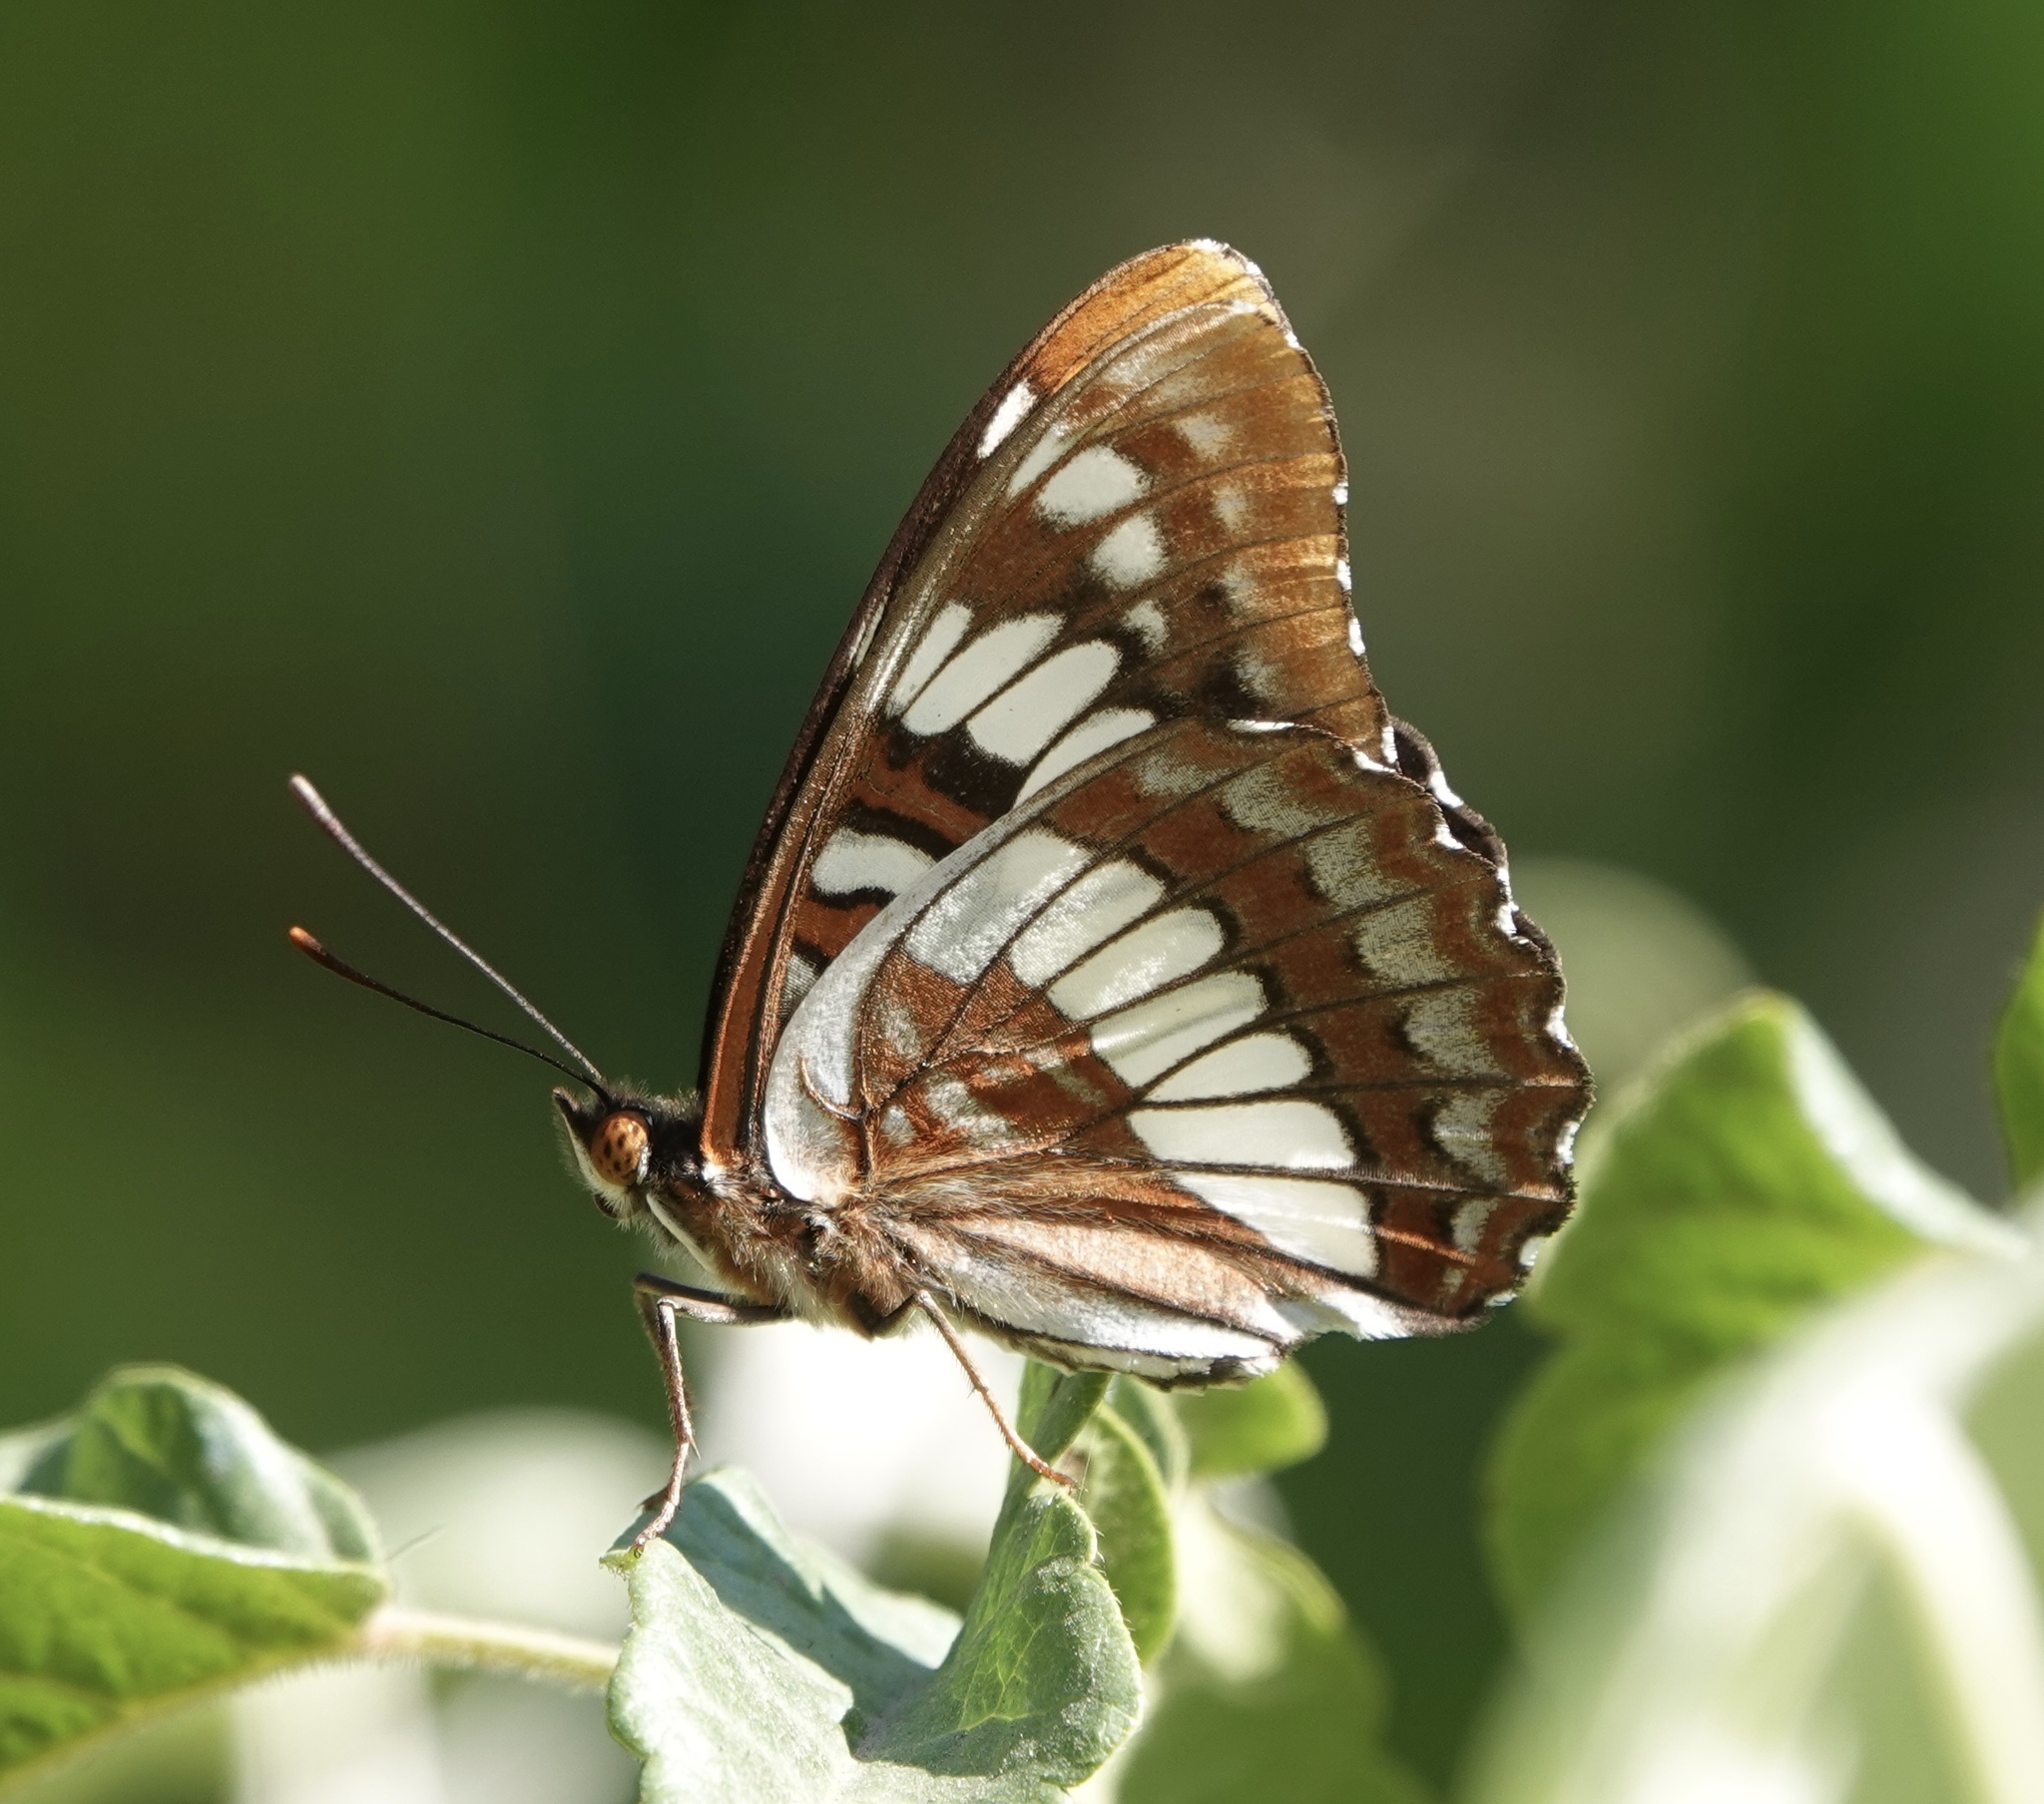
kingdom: Animalia
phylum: Arthropoda
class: Insecta
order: Lepidoptera
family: Nymphalidae
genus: Limenitis
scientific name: Limenitis lorquini
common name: Lorquin's admiral
